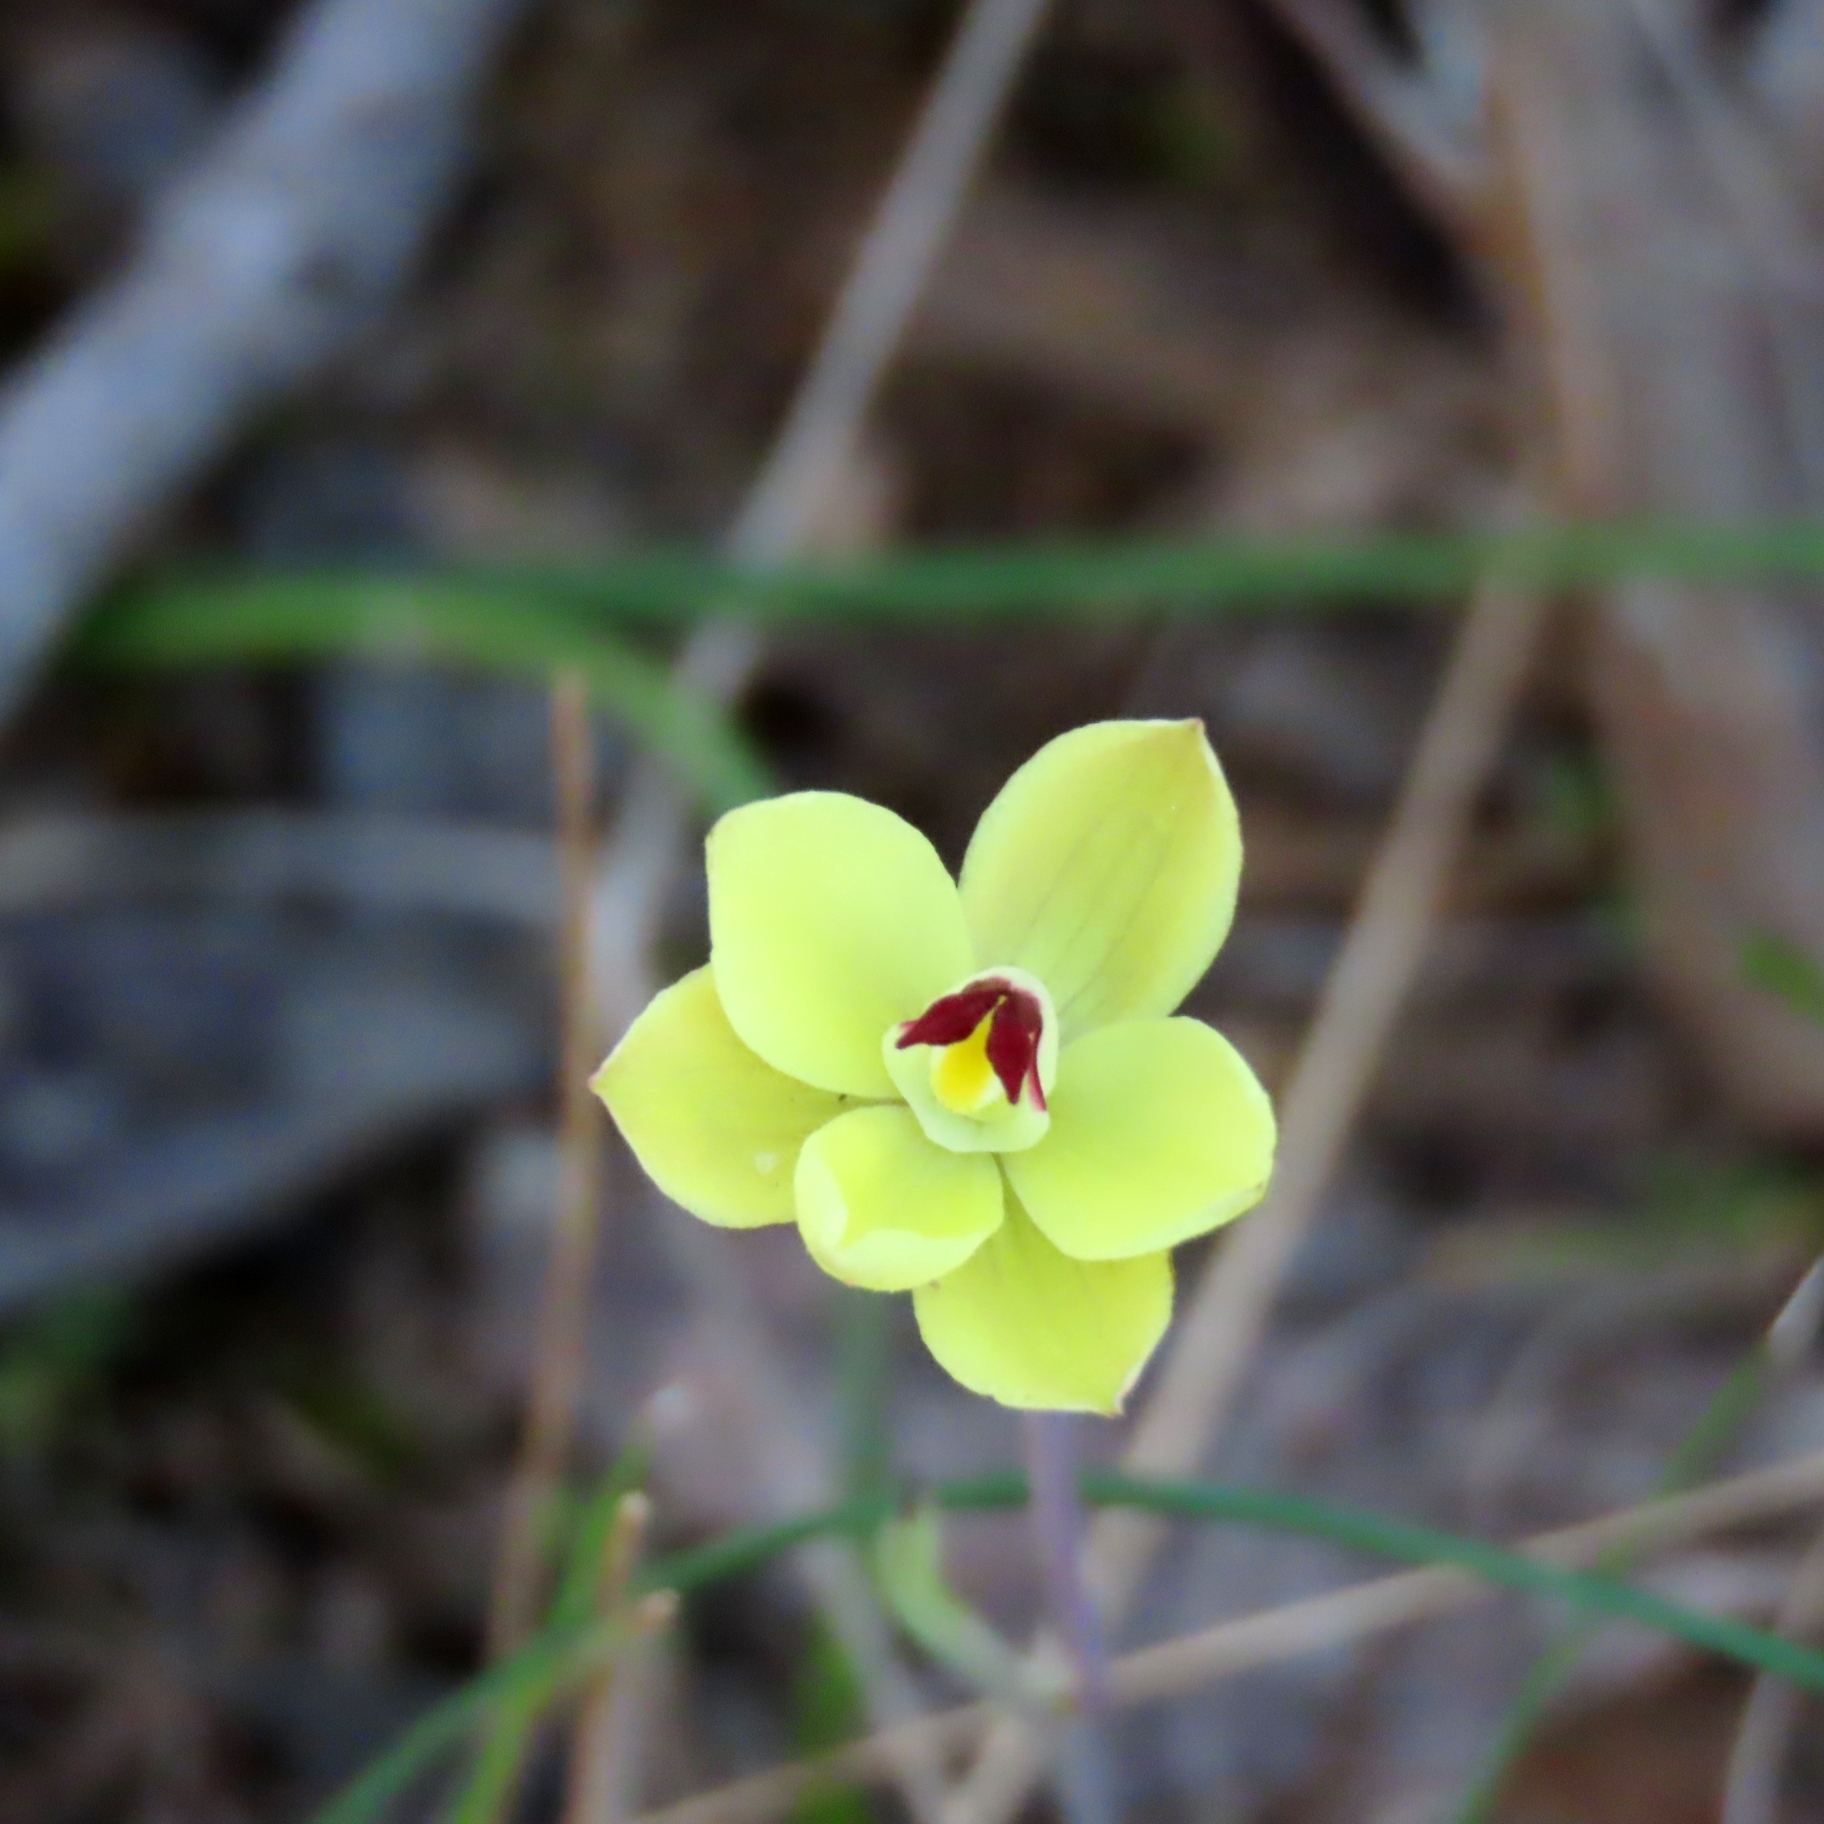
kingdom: Plantae
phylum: Tracheophyta
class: Liliopsida
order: Asparagales
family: Orchidaceae
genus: Thelymitra
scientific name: Thelymitra antennifera
